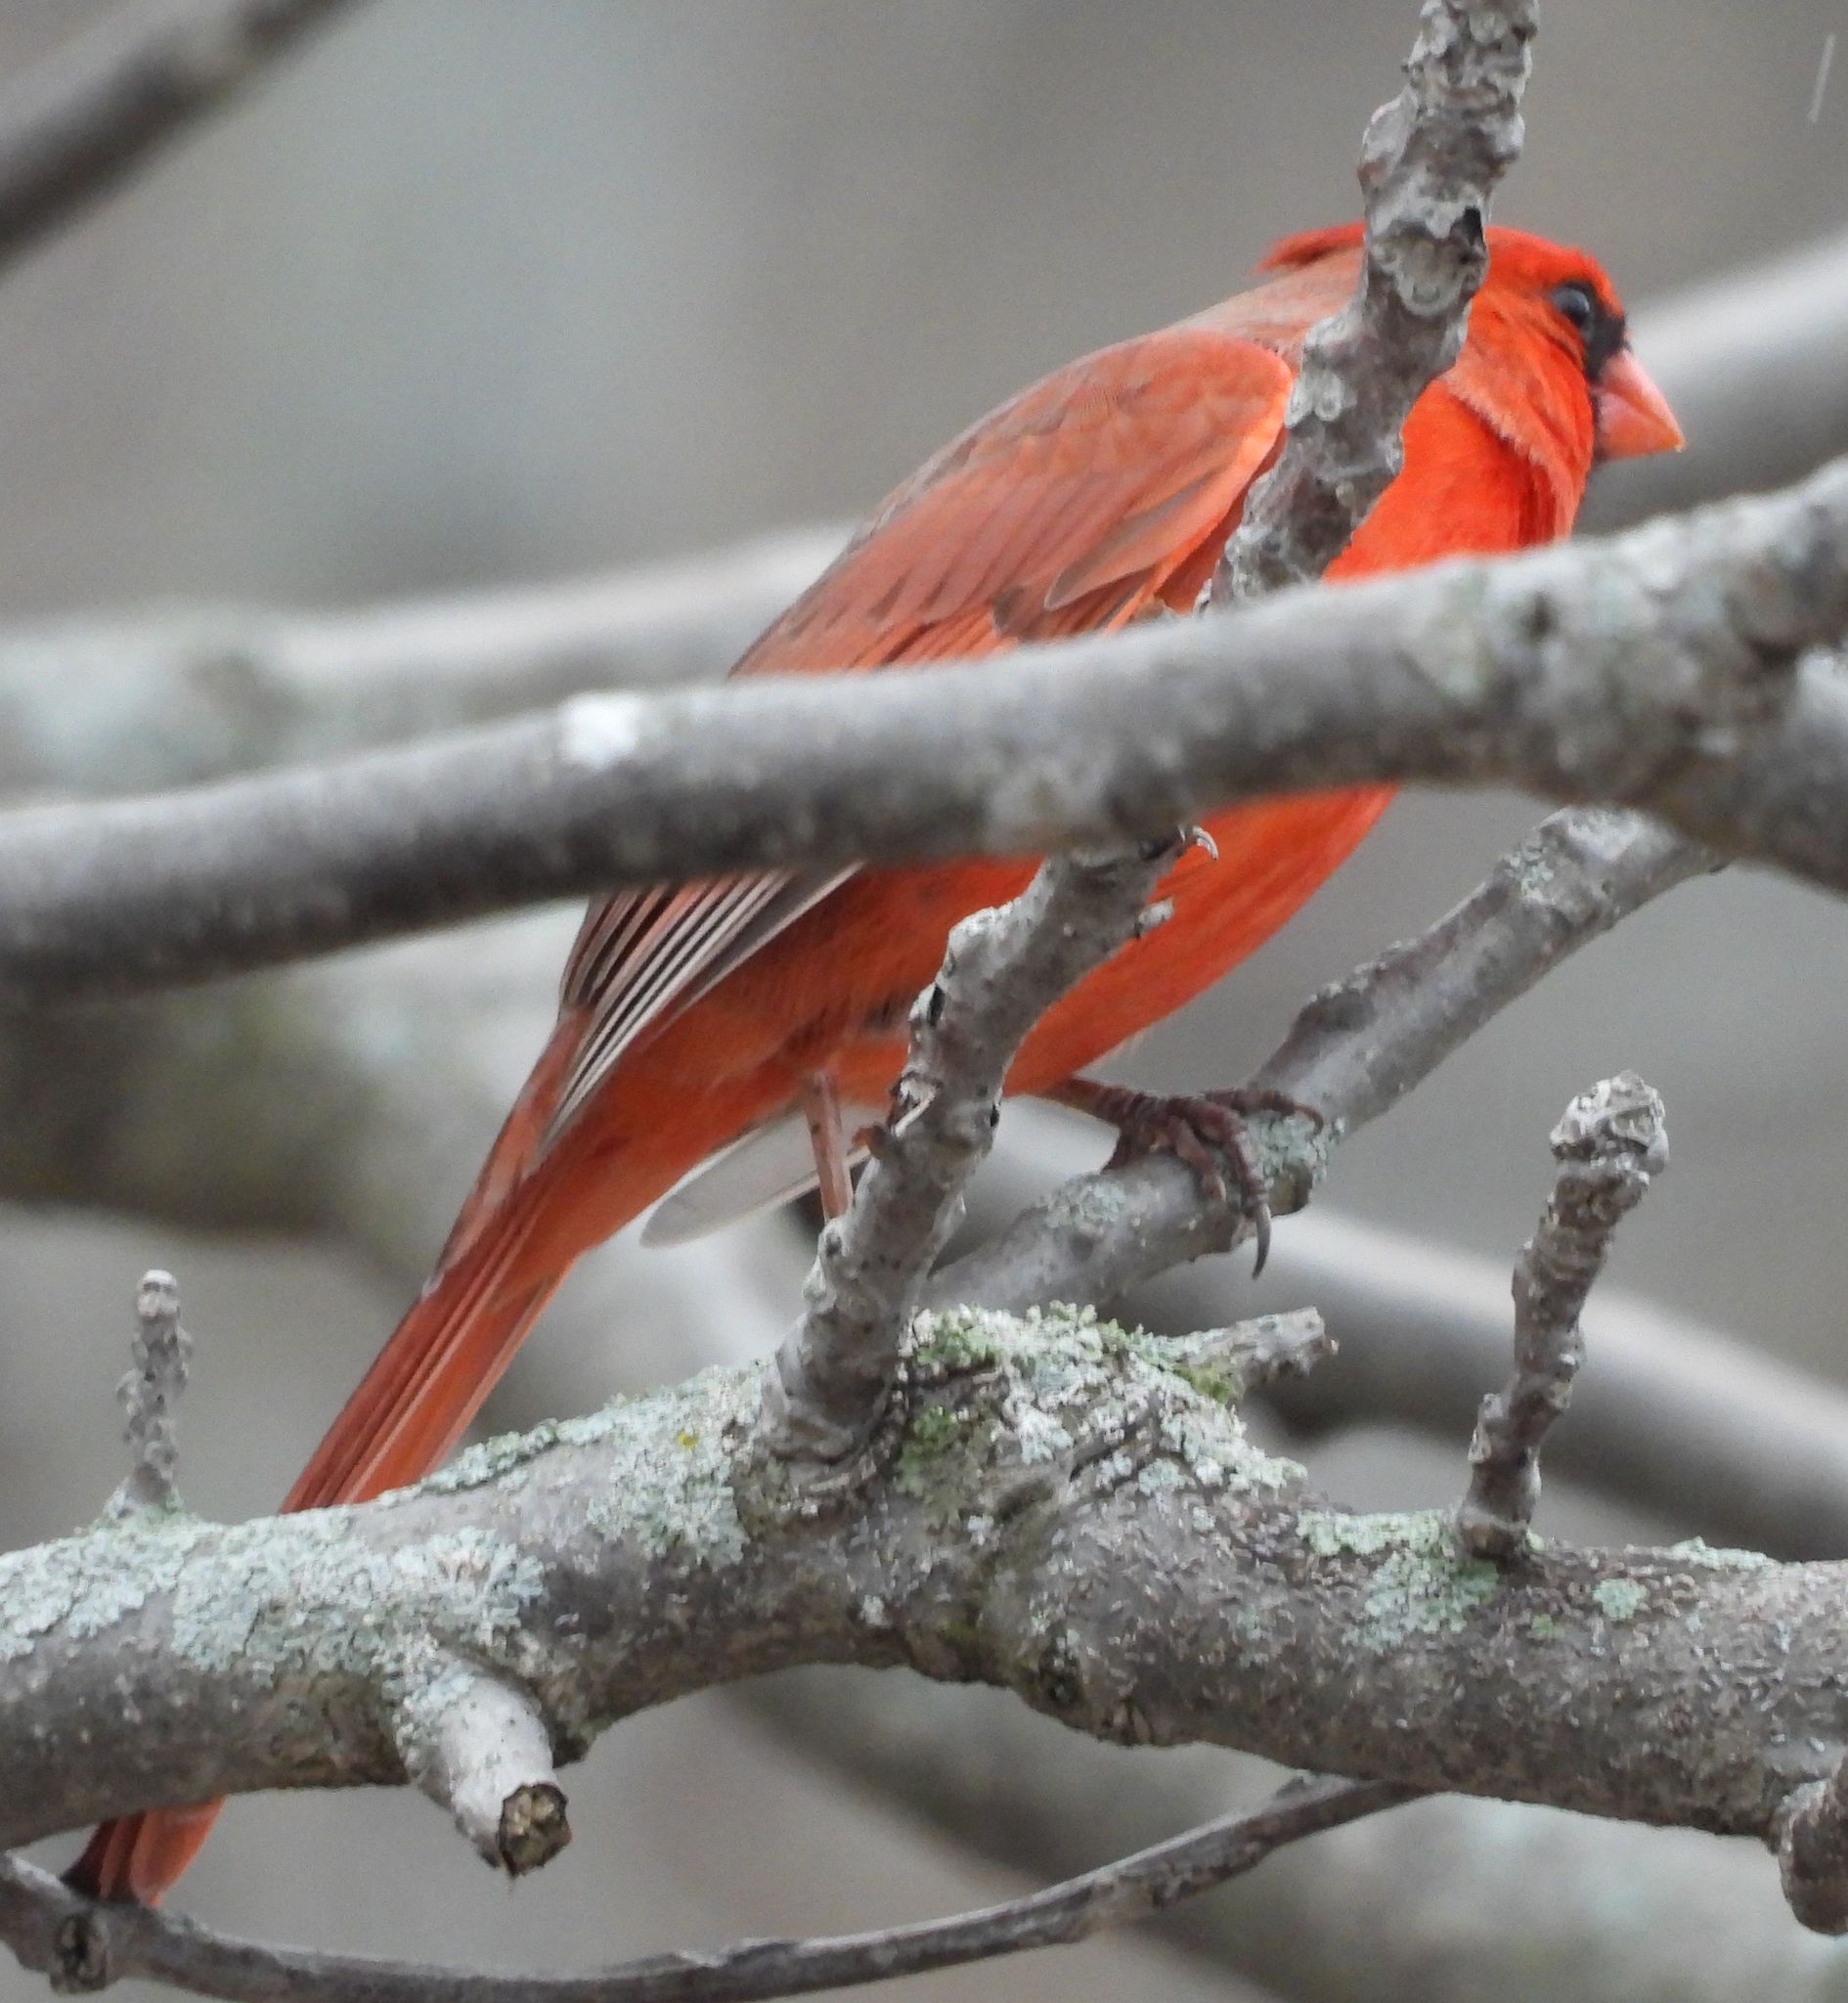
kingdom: Animalia
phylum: Chordata
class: Aves
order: Passeriformes
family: Cardinalidae
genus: Cardinalis
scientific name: Cardinalis cardinalis
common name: Northern cardinal
